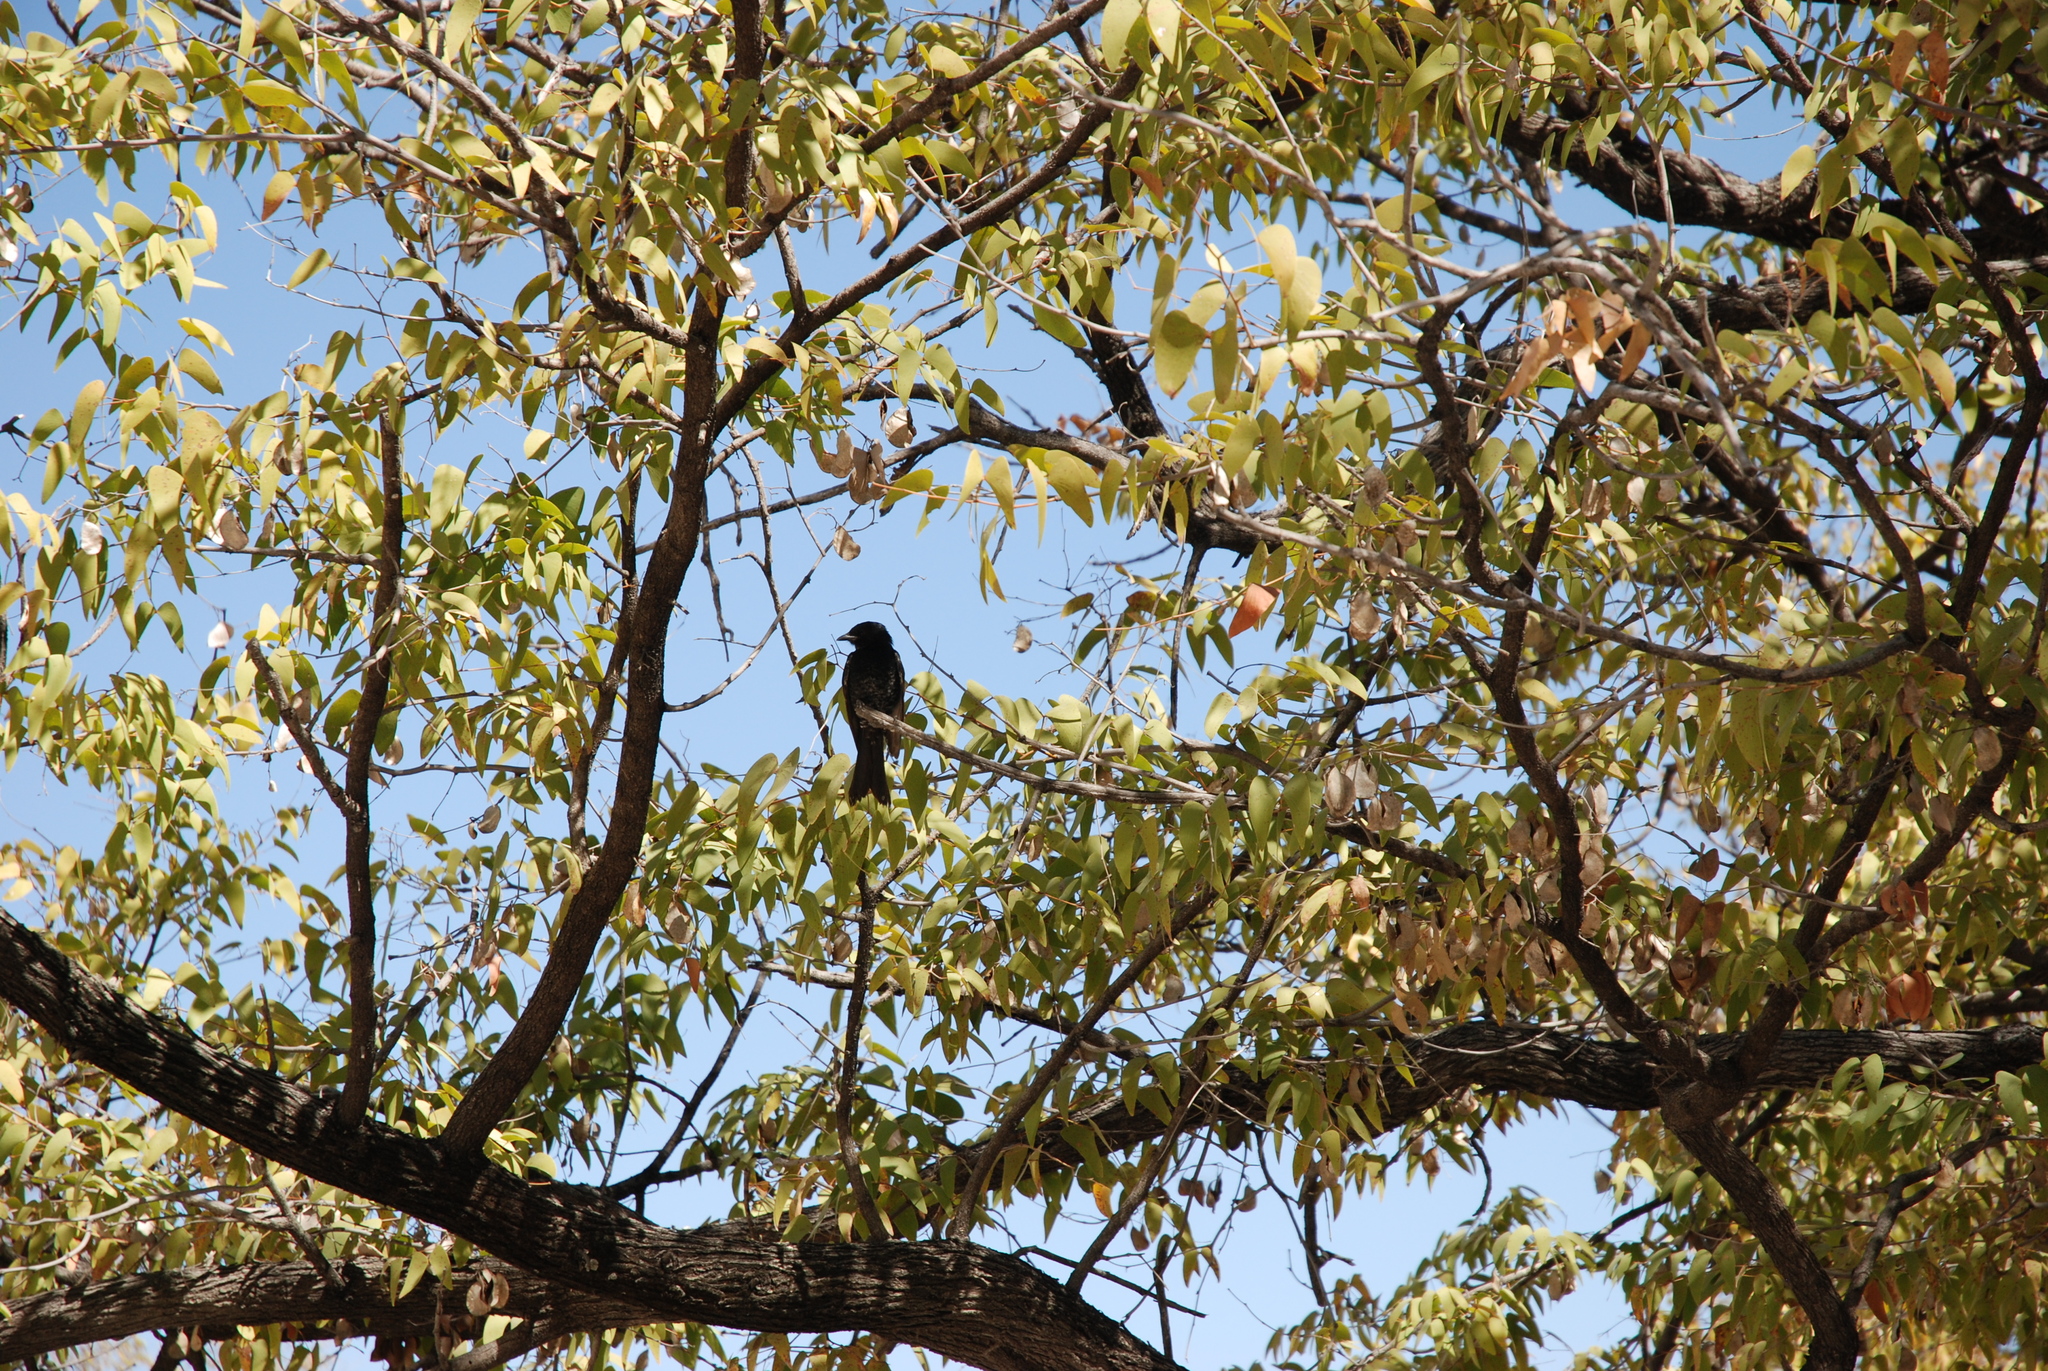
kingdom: Animalia
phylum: Chordata
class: Aves
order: Passeriformes
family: Dicruridae
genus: Dicrurus
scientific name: Dicrurus adsimilis
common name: Fork-tailed drongo
